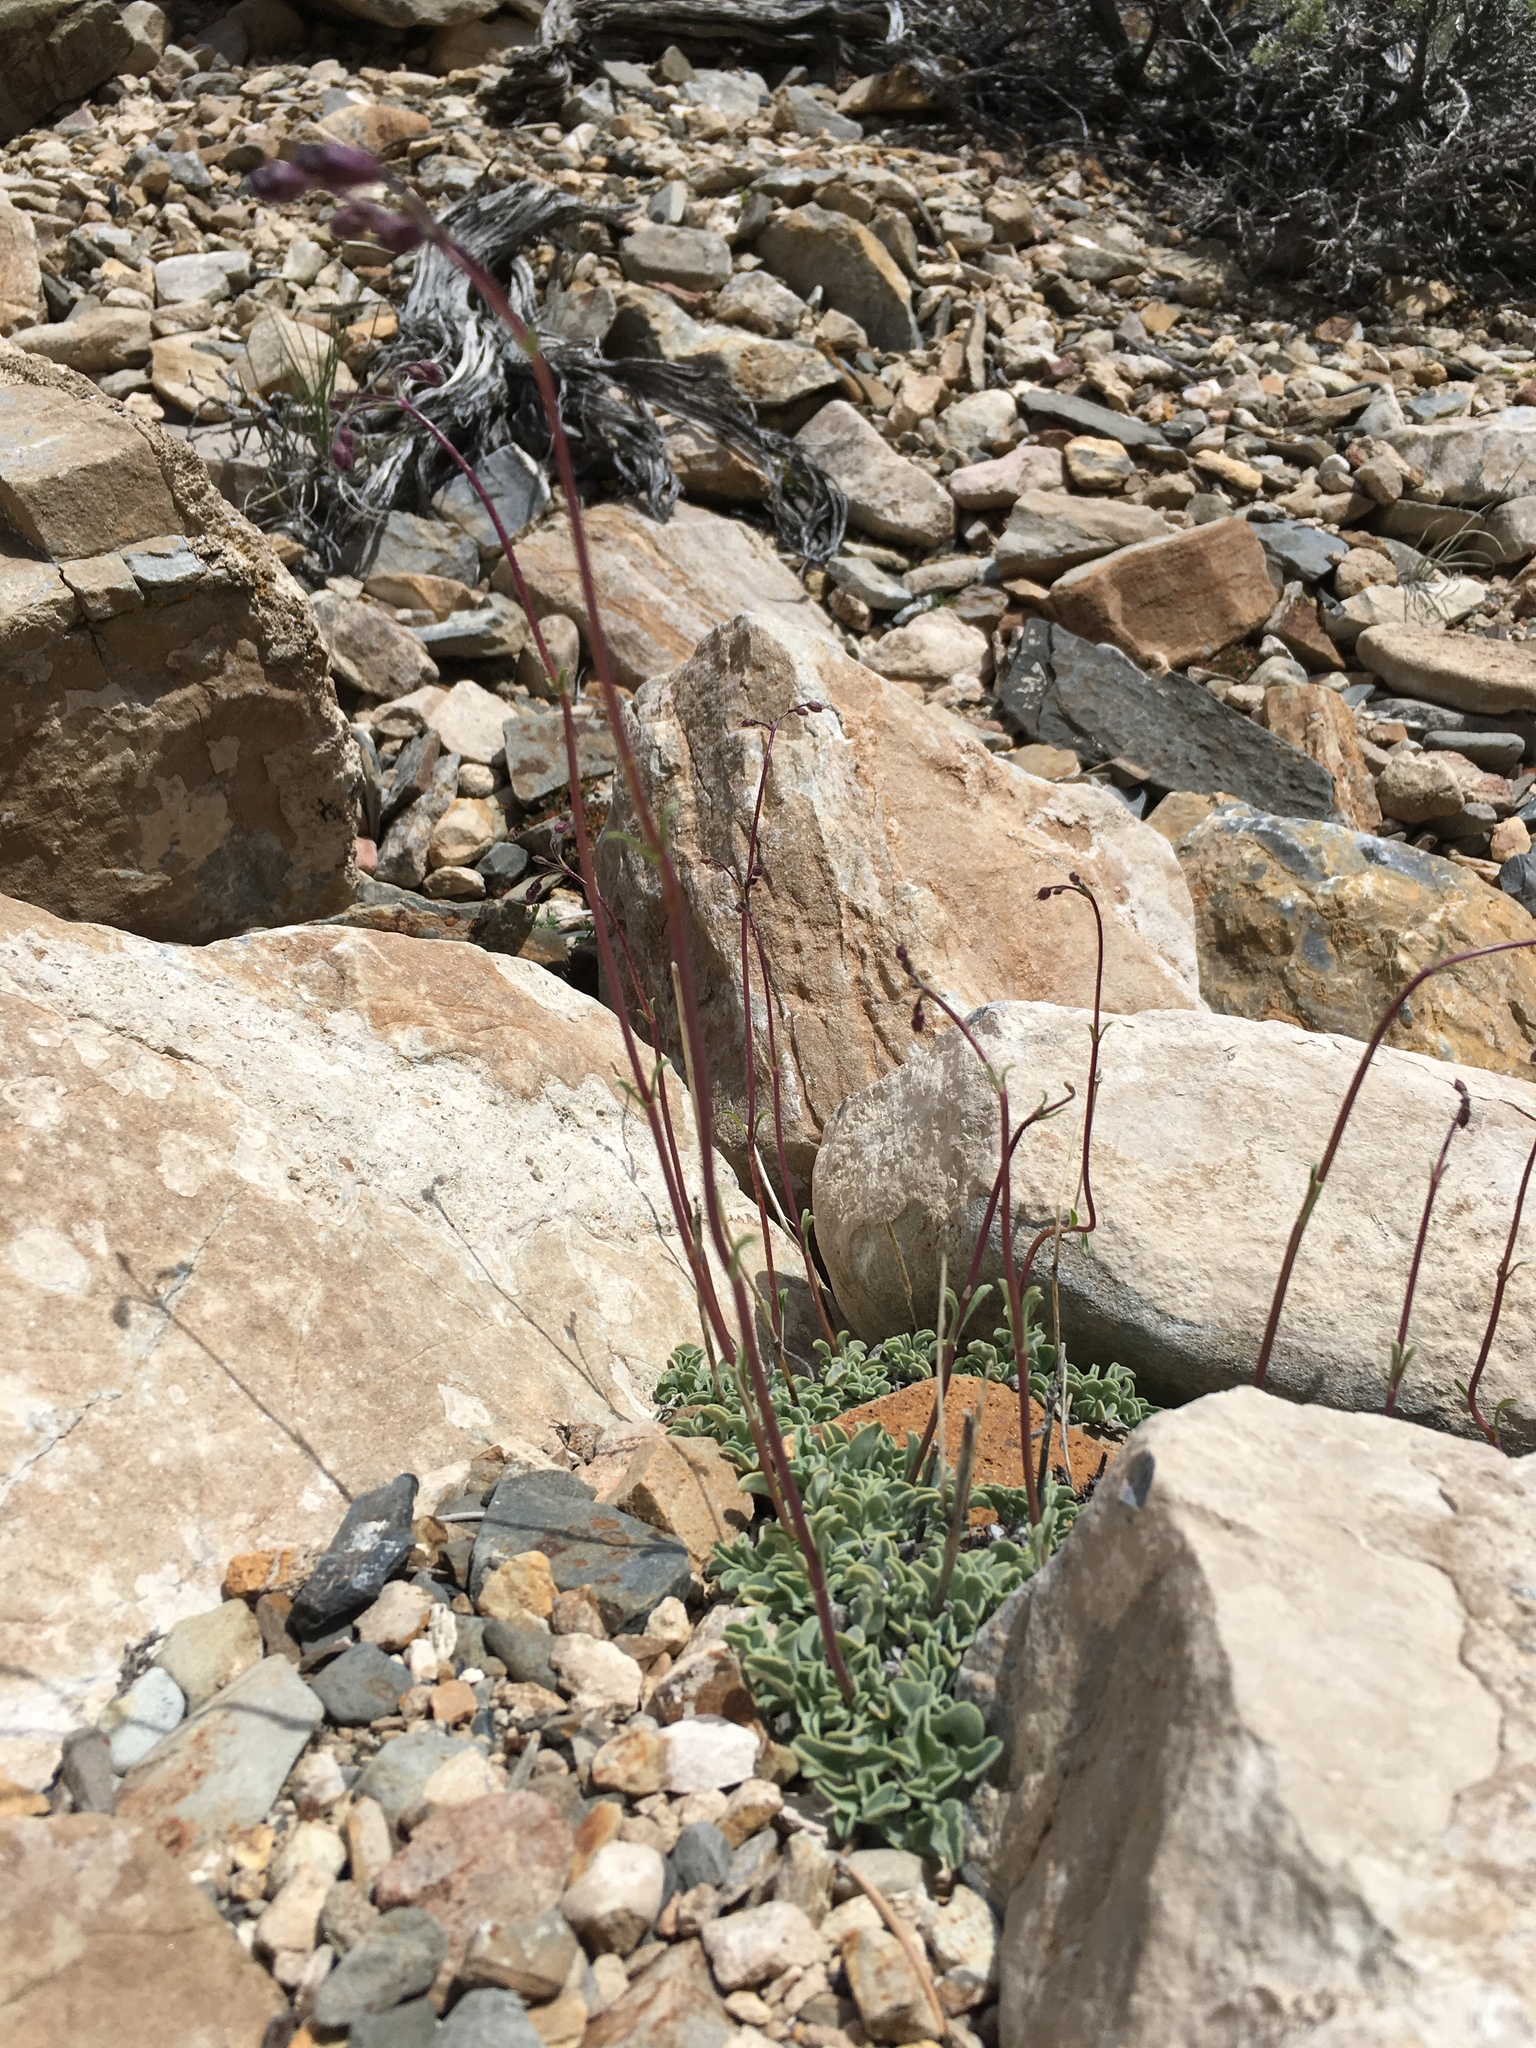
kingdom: Plantae
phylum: Tracheophyta
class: Magnoliopsida
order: Lamiales
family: Plantaginaceae
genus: Penstemon
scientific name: Penstemon scapoides
